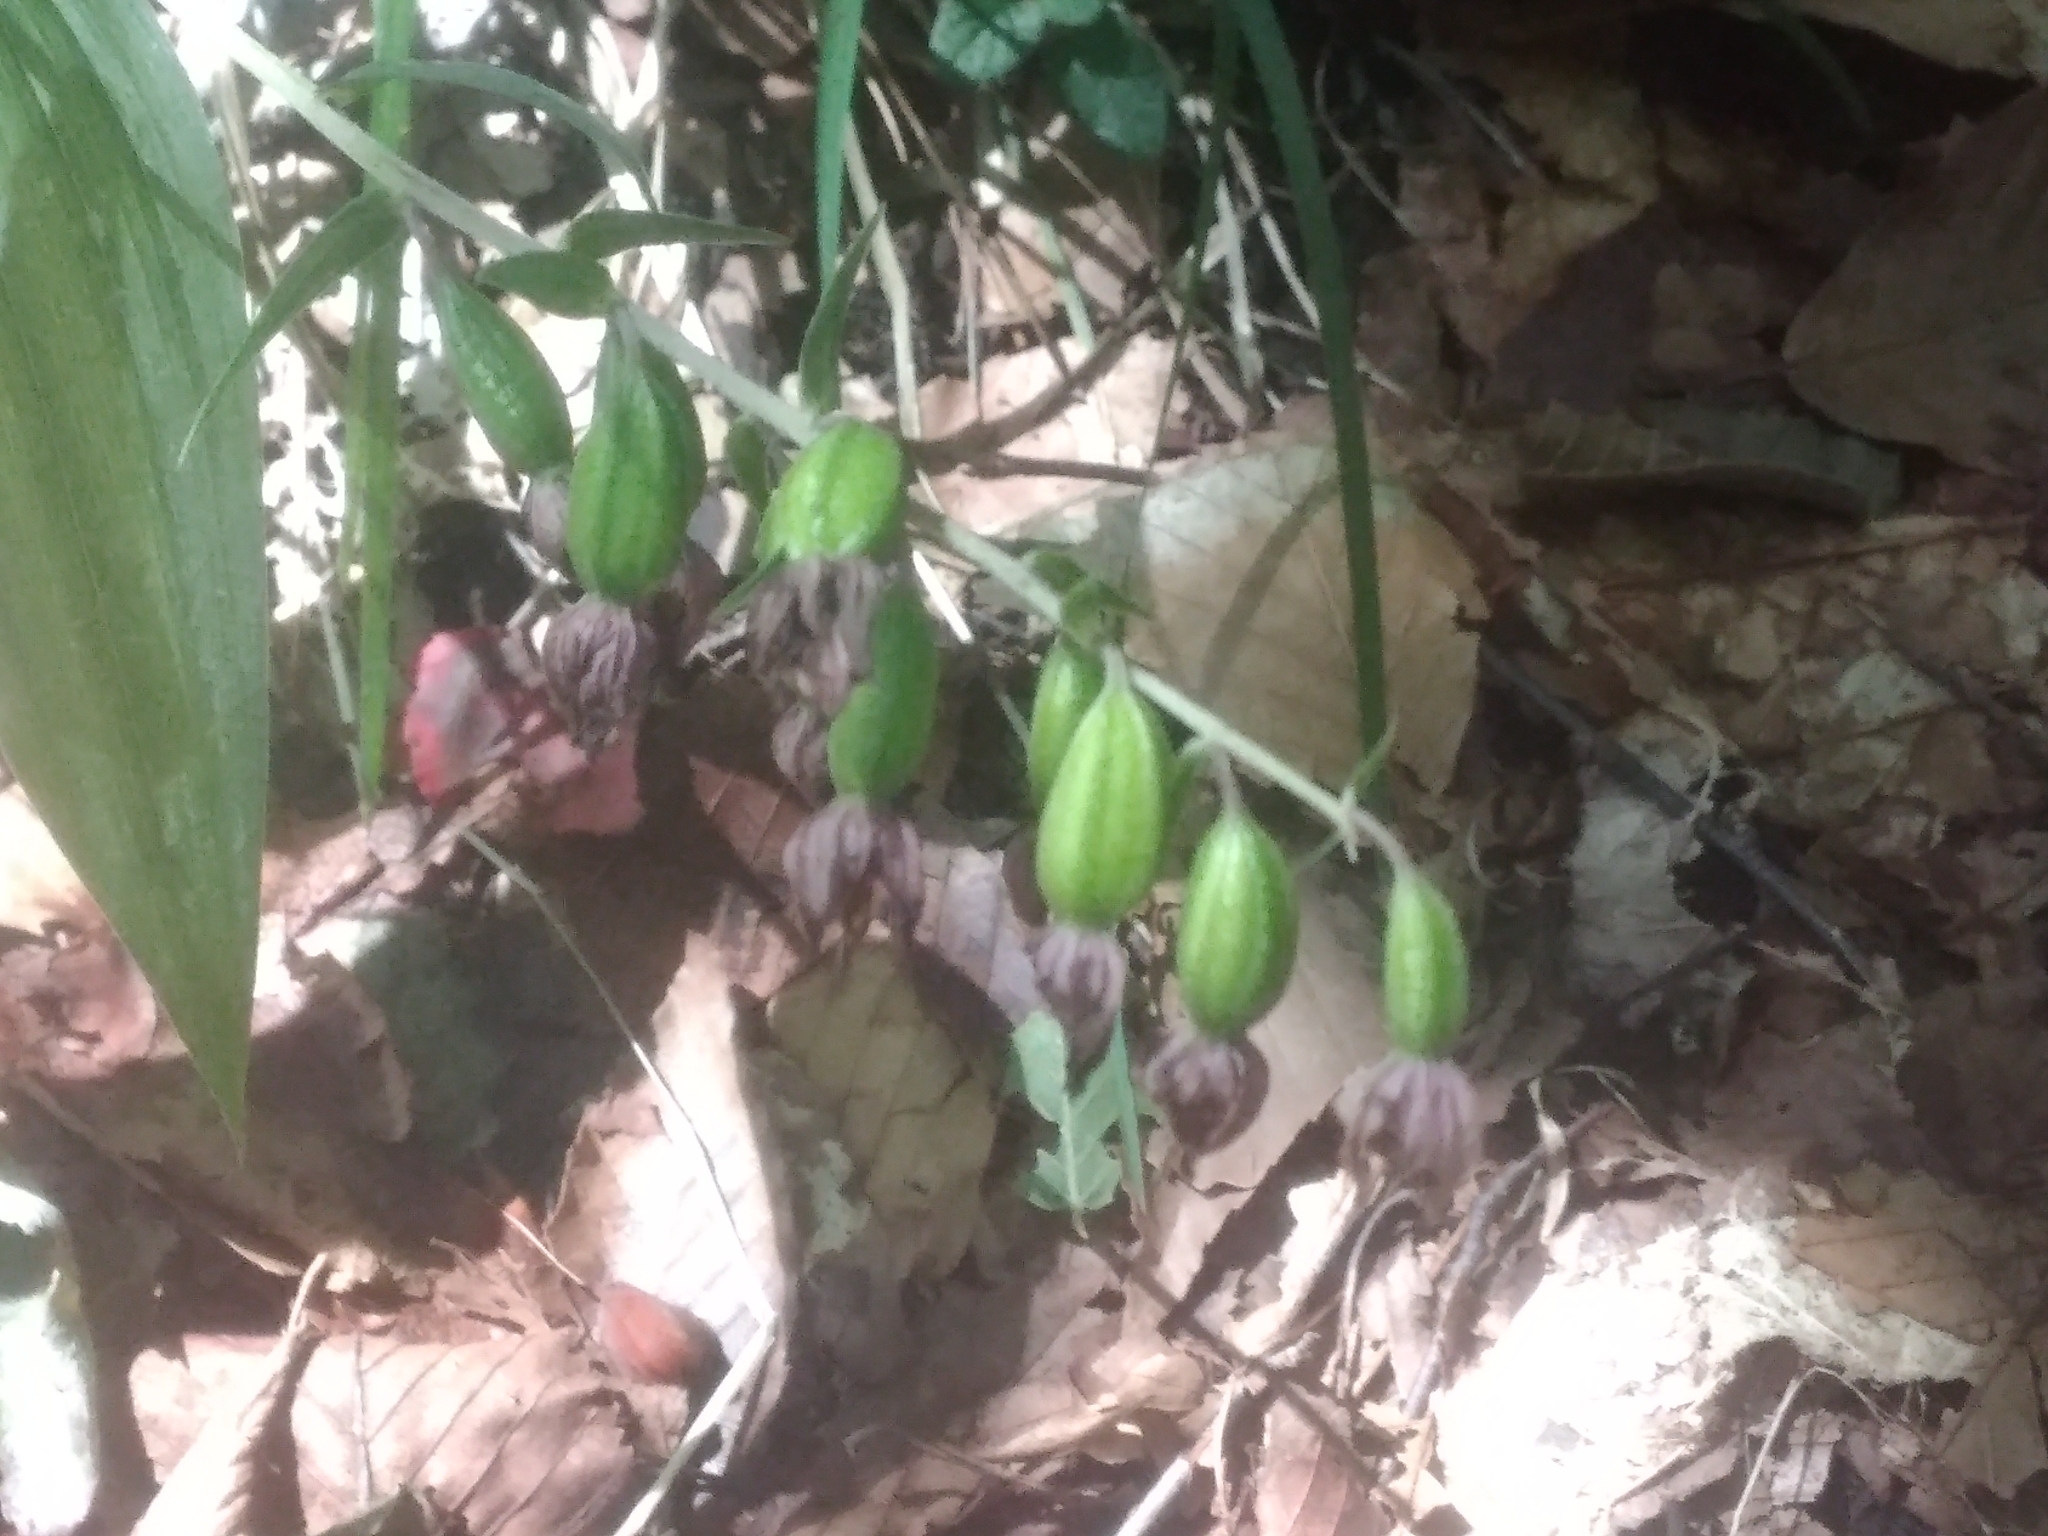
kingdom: Plantae
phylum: Tracheophyta
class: Liliopsida
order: Asparagales
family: Orchidaceae
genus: Epipactis
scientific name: Epipactis helleborine
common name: Broad-leaved helleborine
